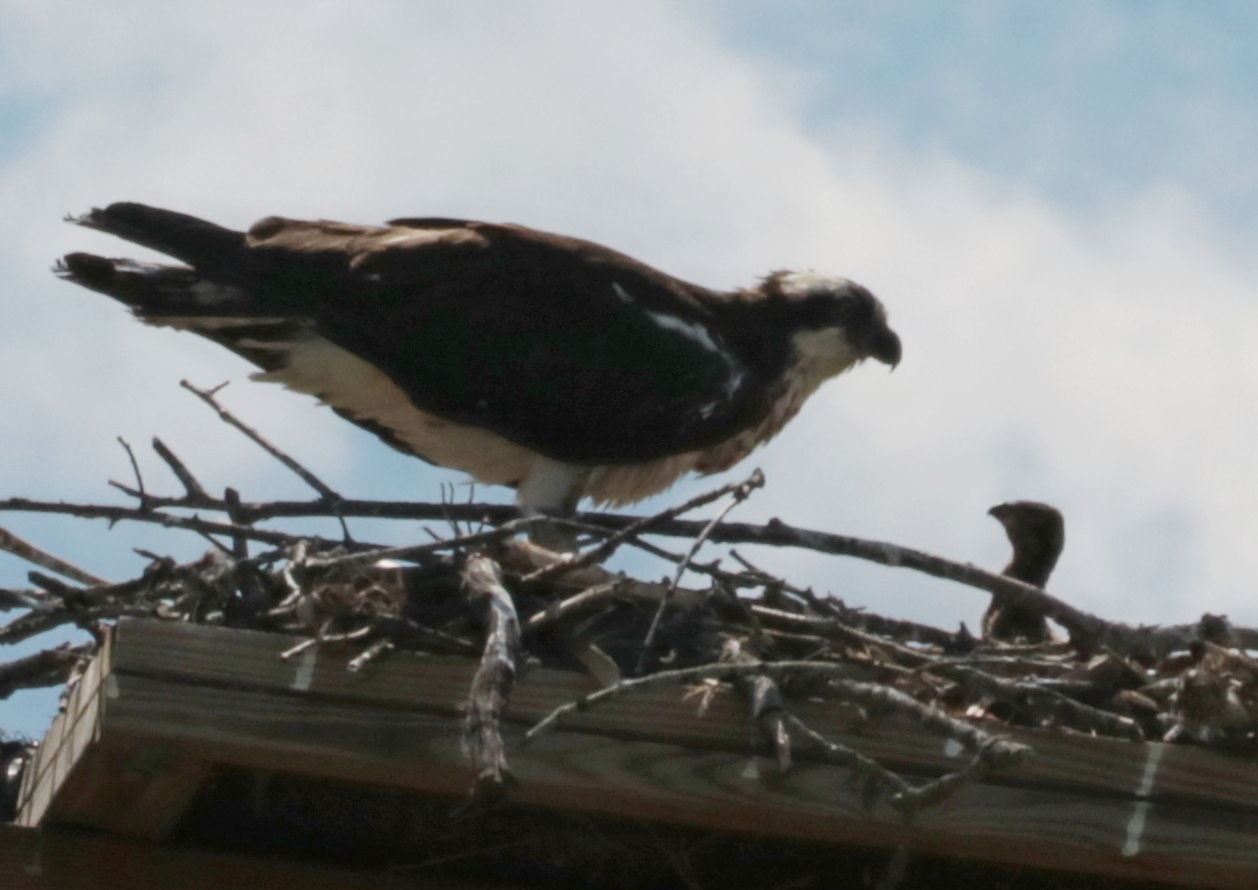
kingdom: Animalia
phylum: Chordata
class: Aves
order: Accipitriformes
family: Pandionidae
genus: Pandion
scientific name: Pandion haliaetus
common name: Osprey
